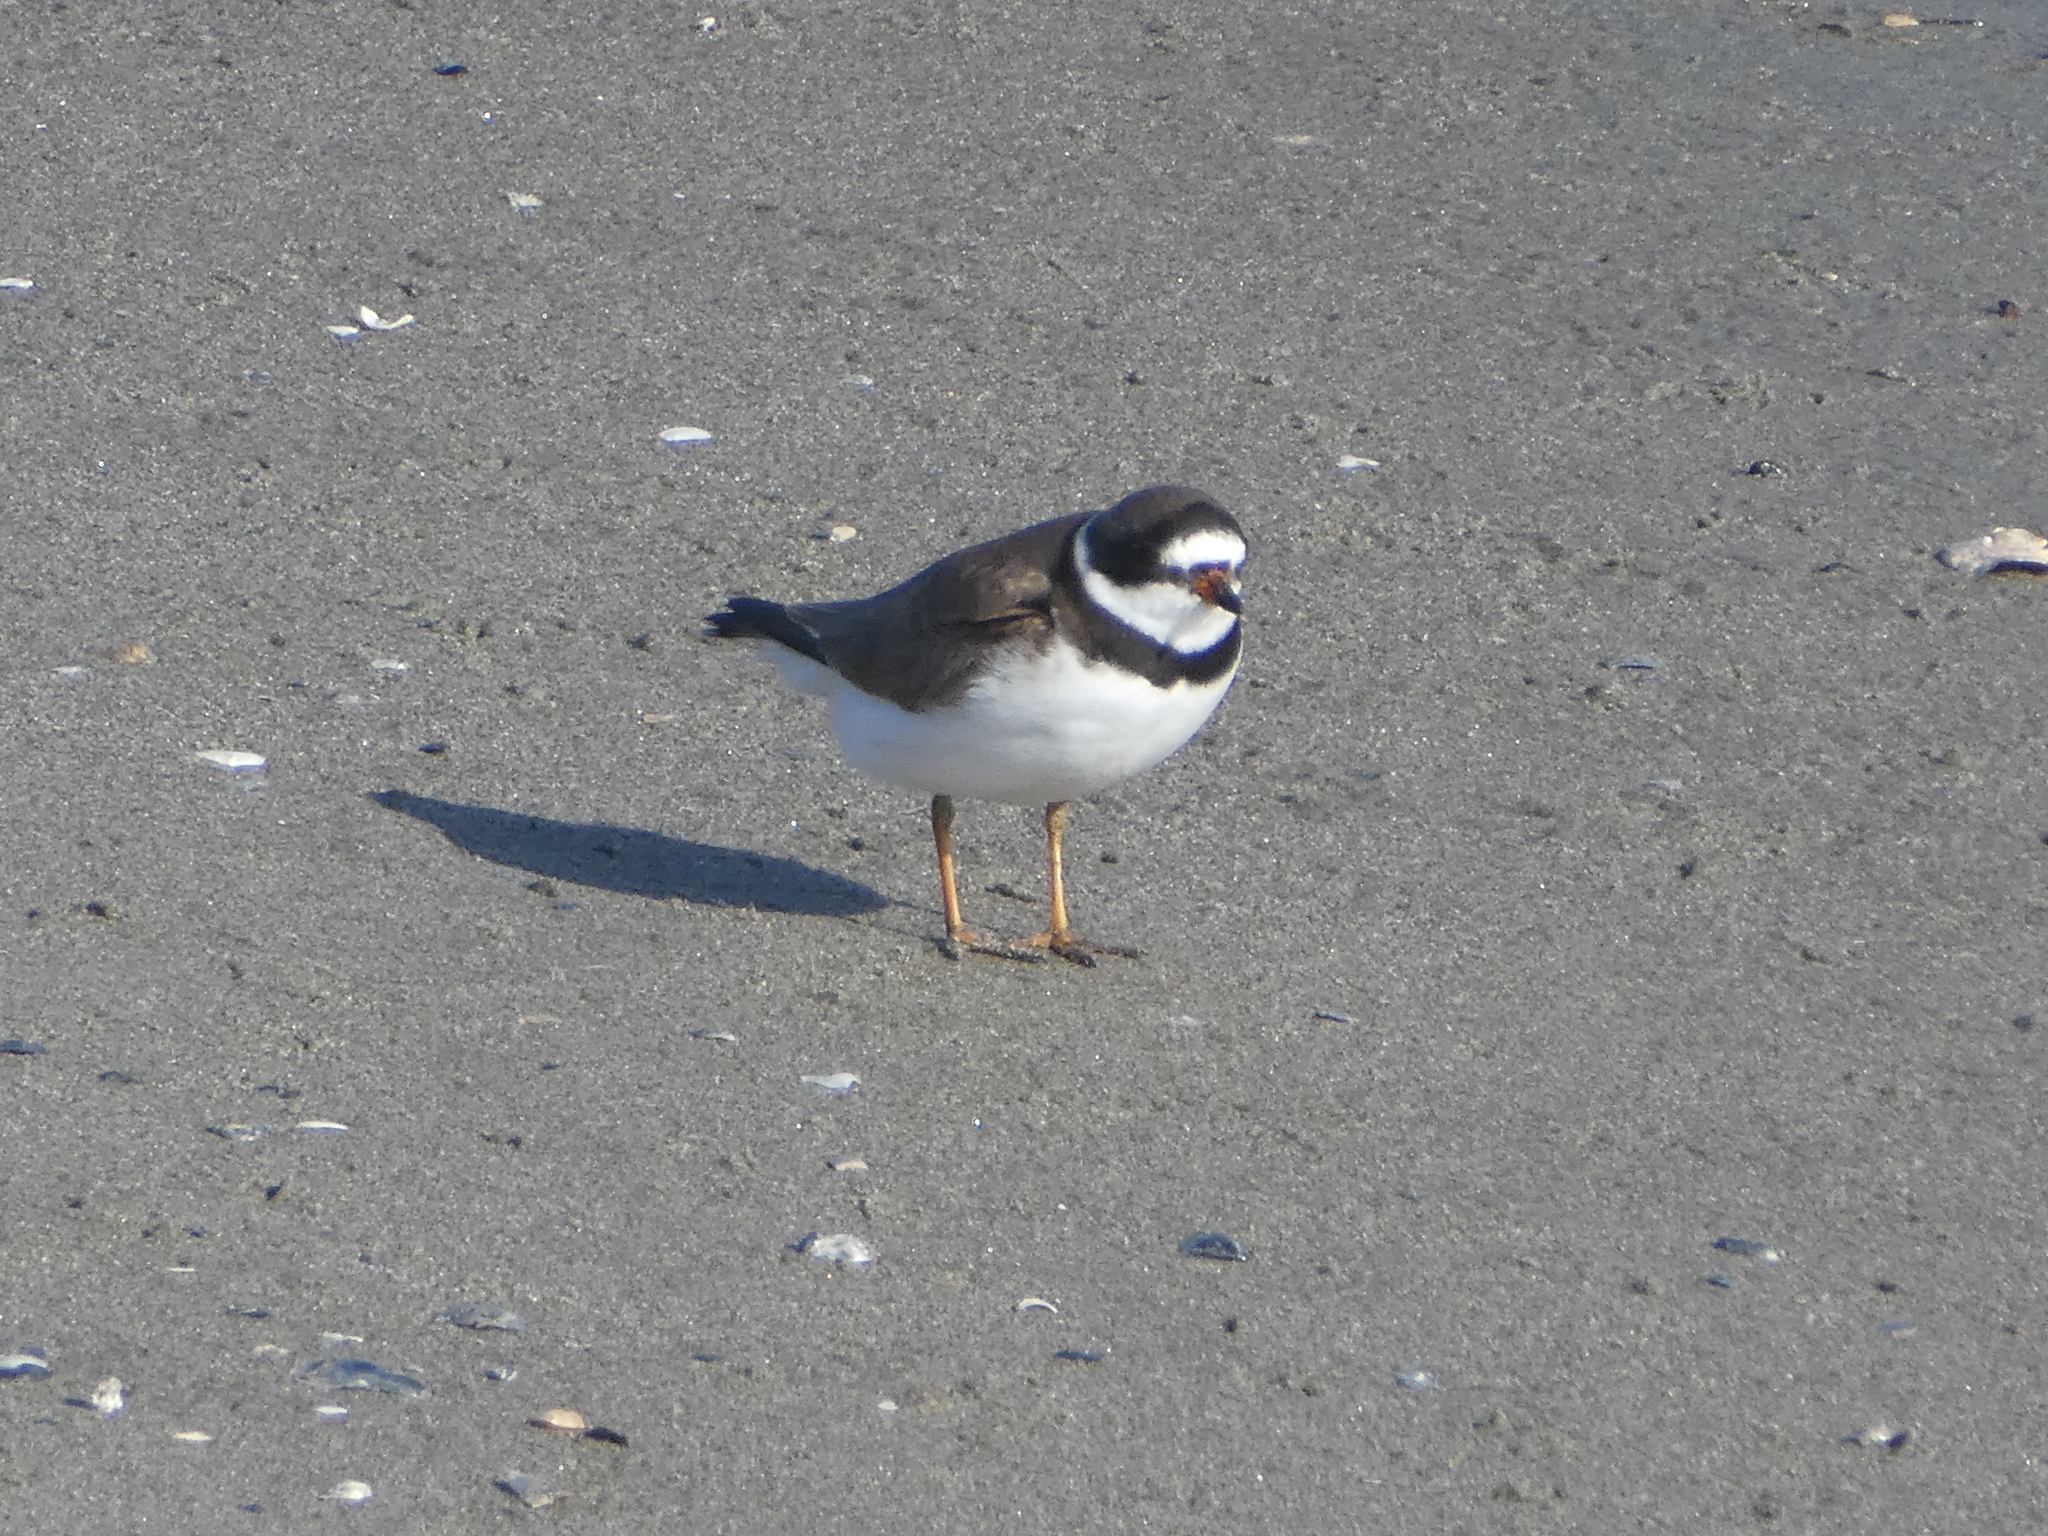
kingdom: Animalia
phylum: Chordata
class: Aves
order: Charadriiformes
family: Charadriidae
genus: Charadrius
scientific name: Charadrius semipalmatus
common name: Semipalmated plover
